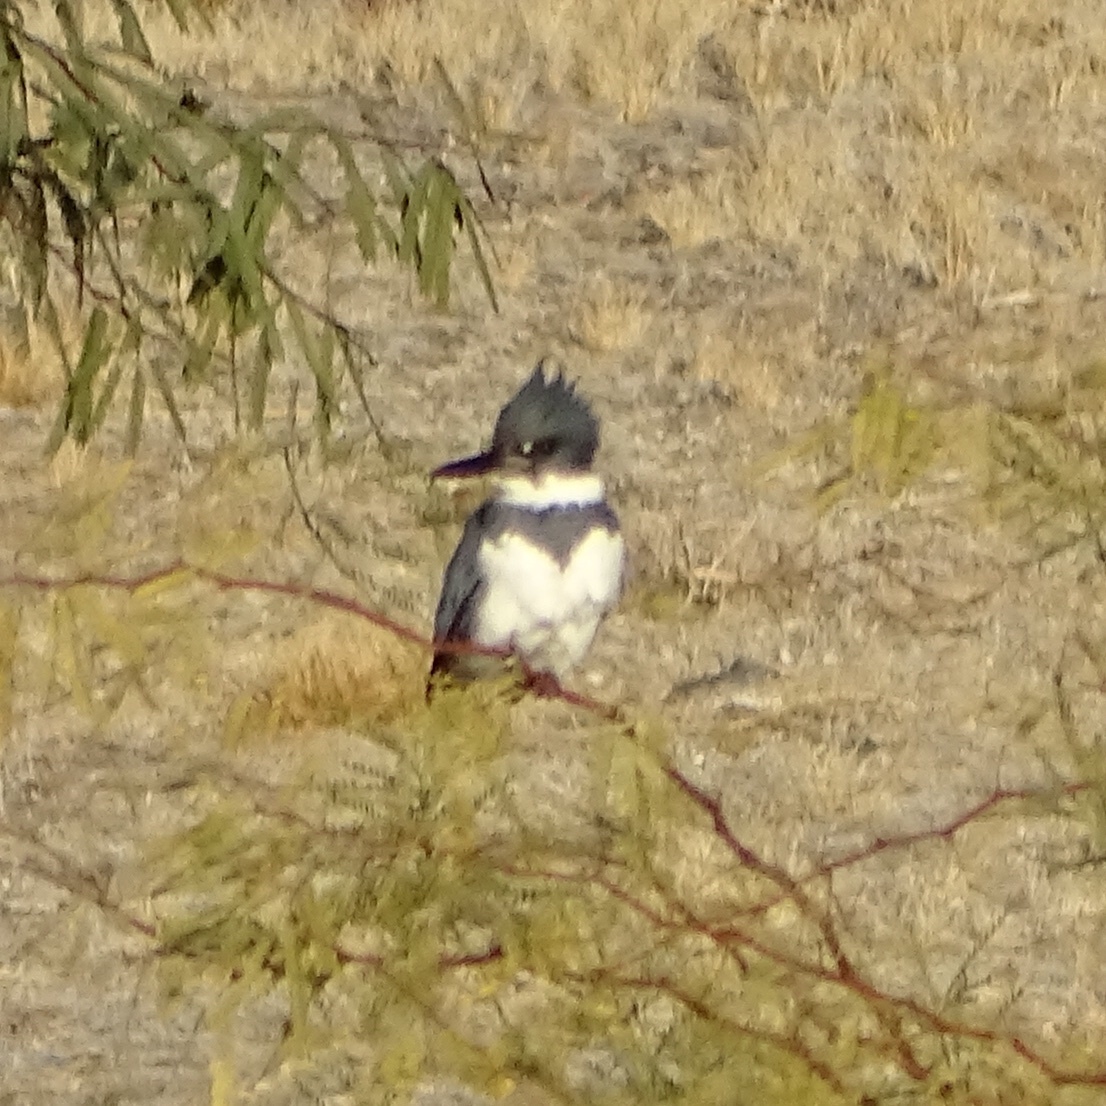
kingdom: Animalia
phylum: Chordata
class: Aves
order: Coraciiformes
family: Alcedinidae
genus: Megaceryle
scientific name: Megaceryle alcyon
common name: Belted kingfisher
